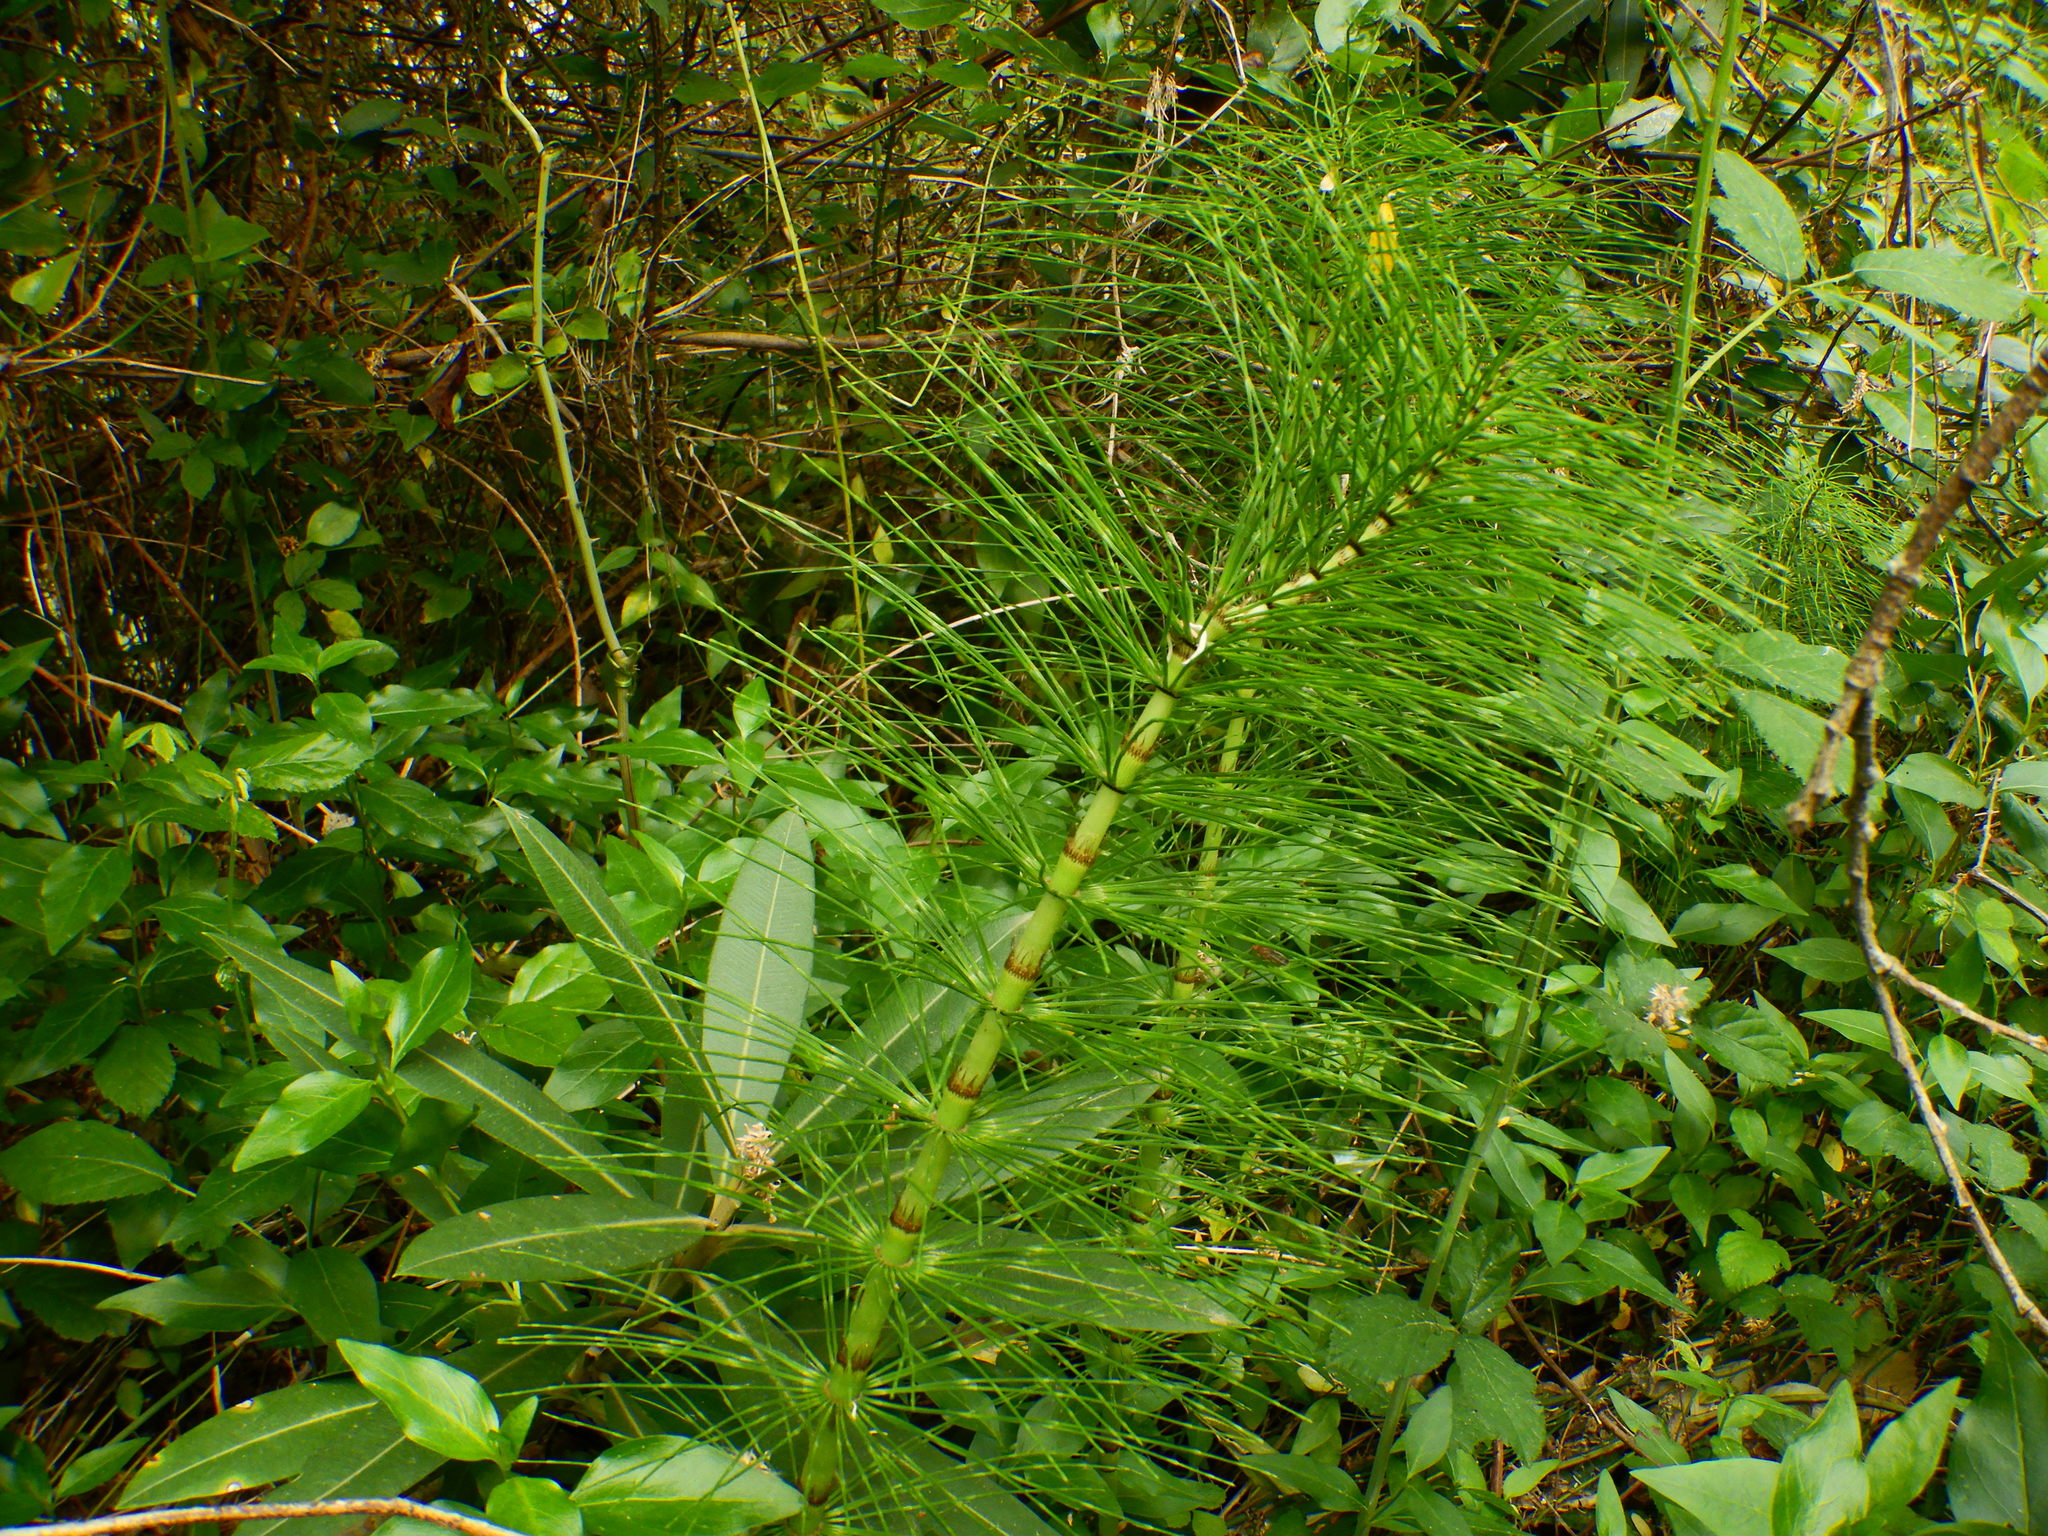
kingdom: Plantae
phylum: Tracheophyta
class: Polypodiopsida
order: Equisetales
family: Equisetaceae
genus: Equisetum
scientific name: Equisetum telmateia
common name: Great horsetail
